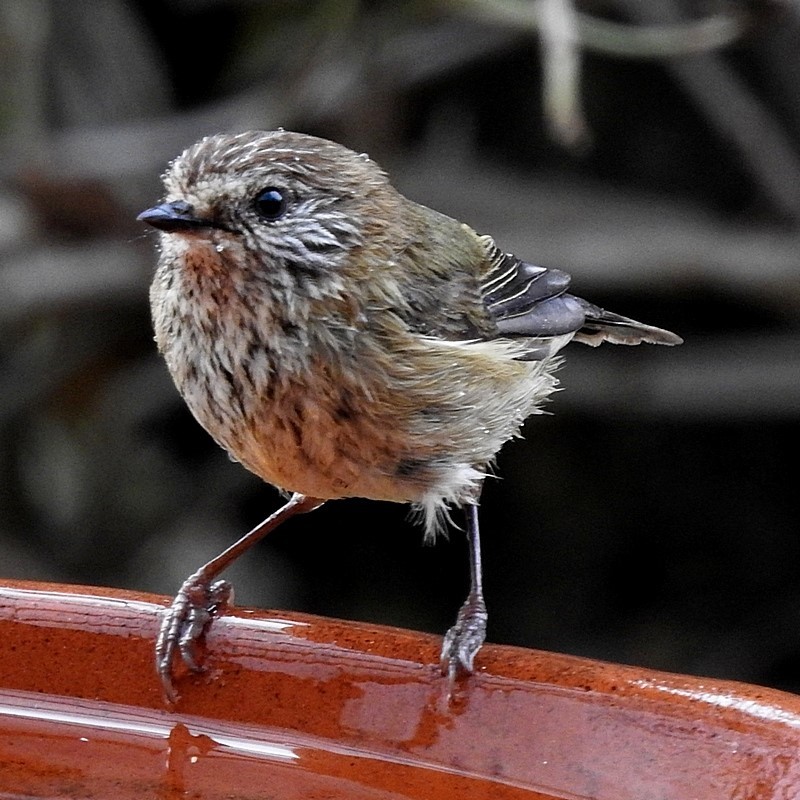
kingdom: Animalia
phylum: Chordata
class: Aves
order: Passeriformes
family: Acanthizidae
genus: Acanthiza
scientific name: Acanthiza lineata
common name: Striated thornbill
